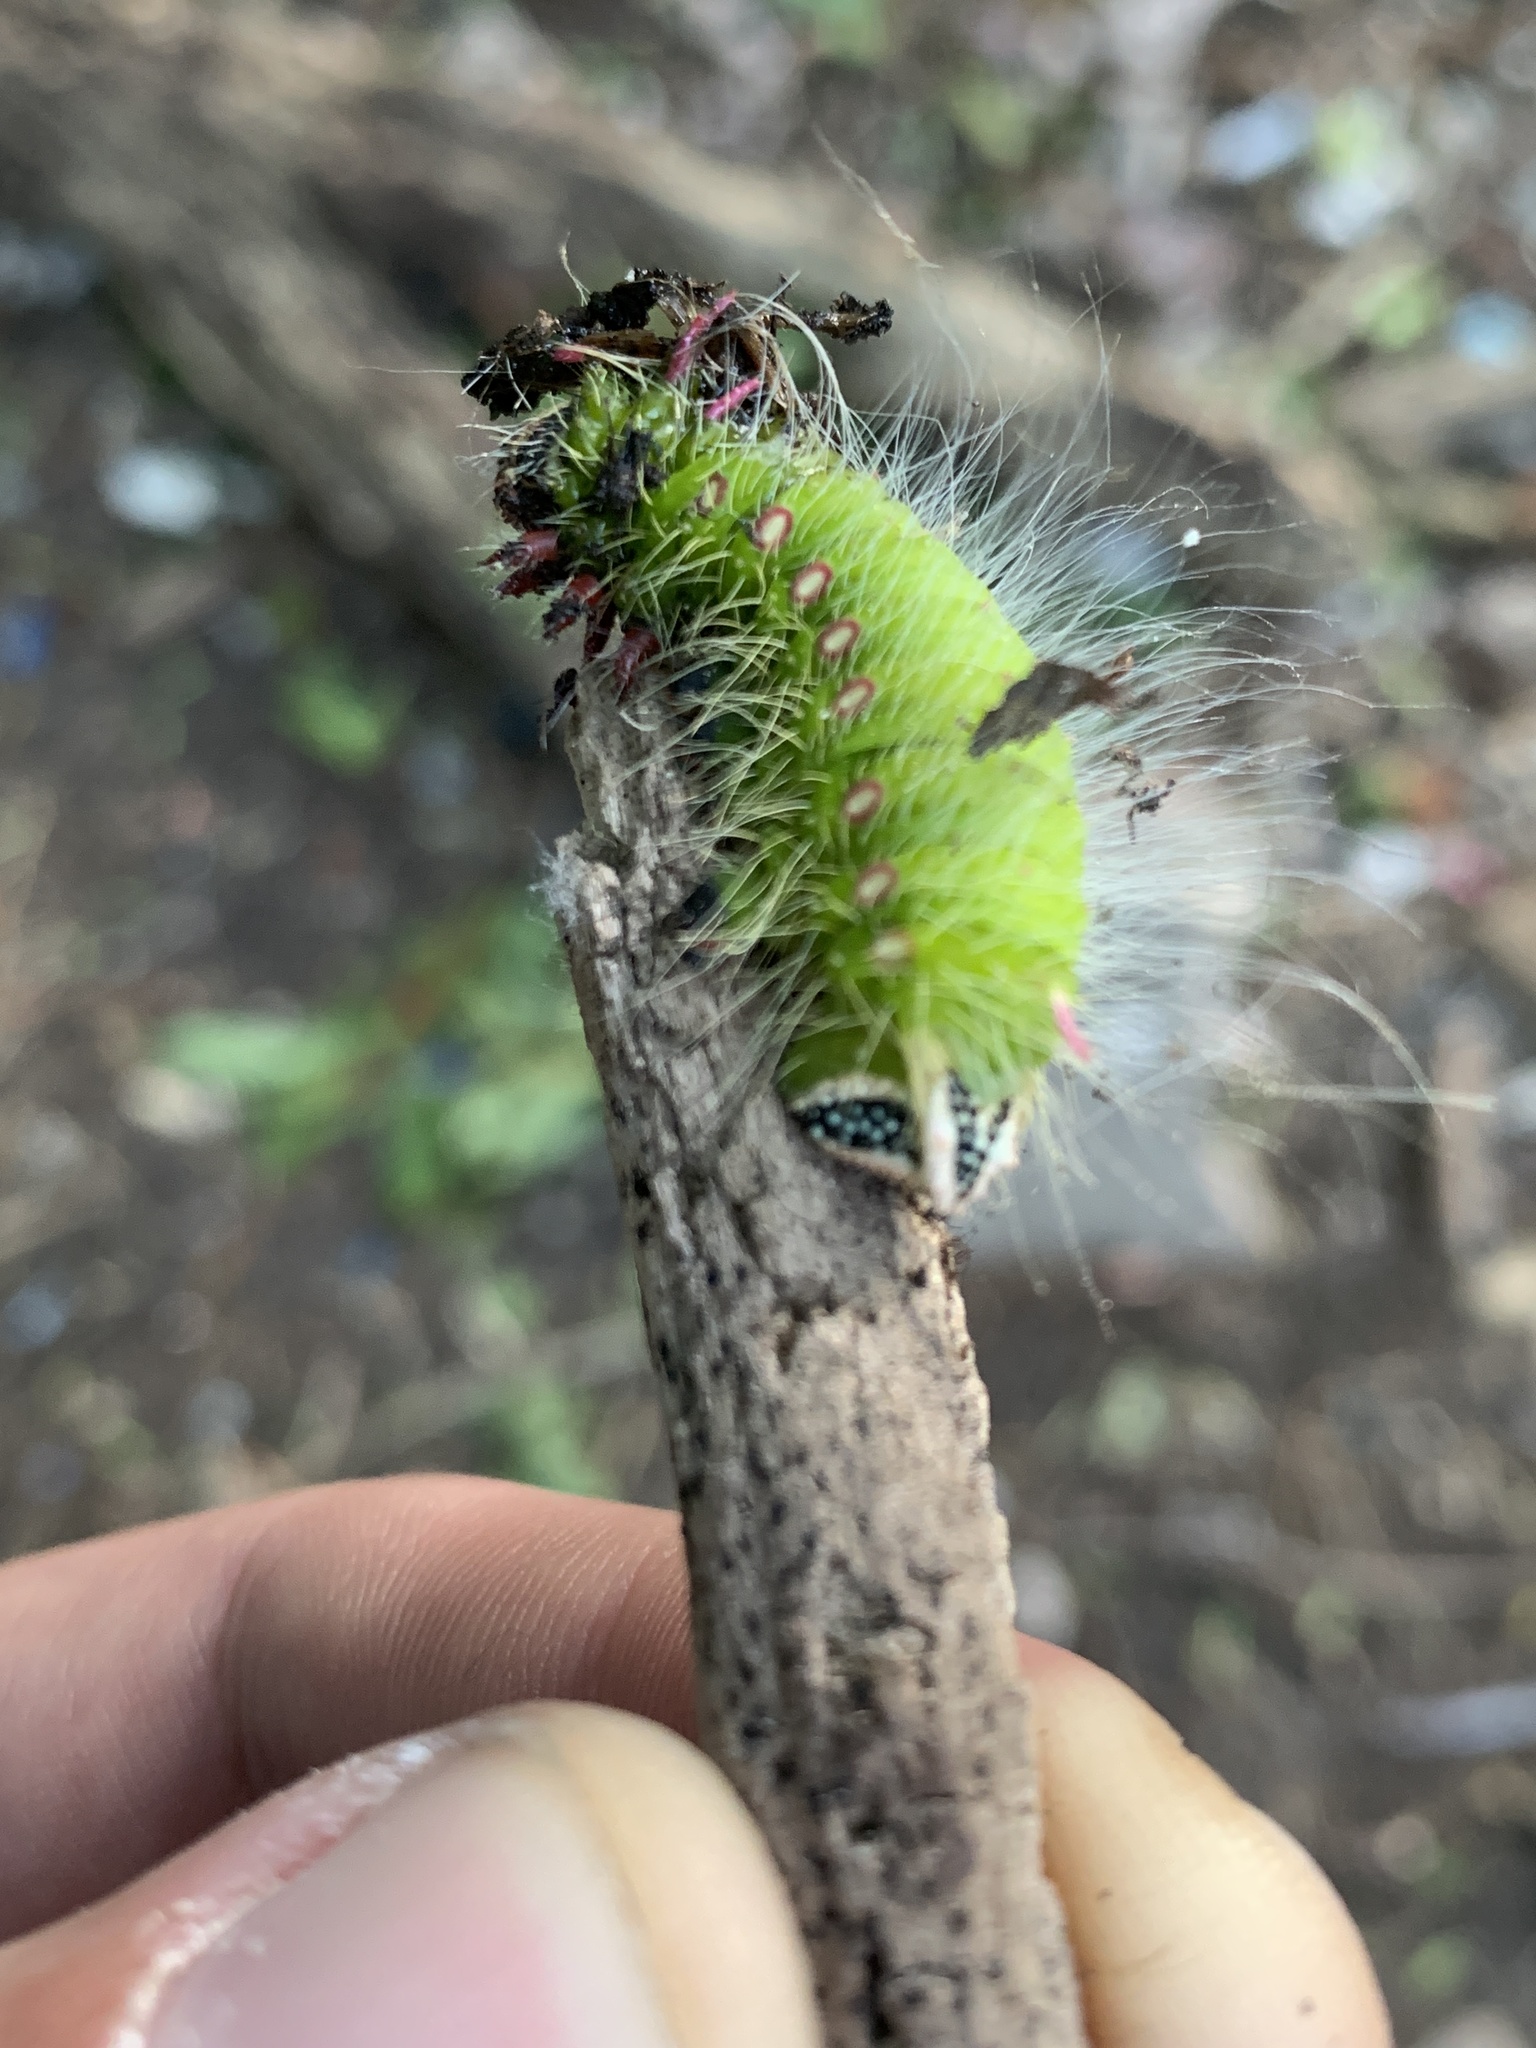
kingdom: Animalia
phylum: Arthropoda
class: Insecta
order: Lepidoptera
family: Saturniidae
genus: Eacles
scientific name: Eacles imperialis
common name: Imperial moth
